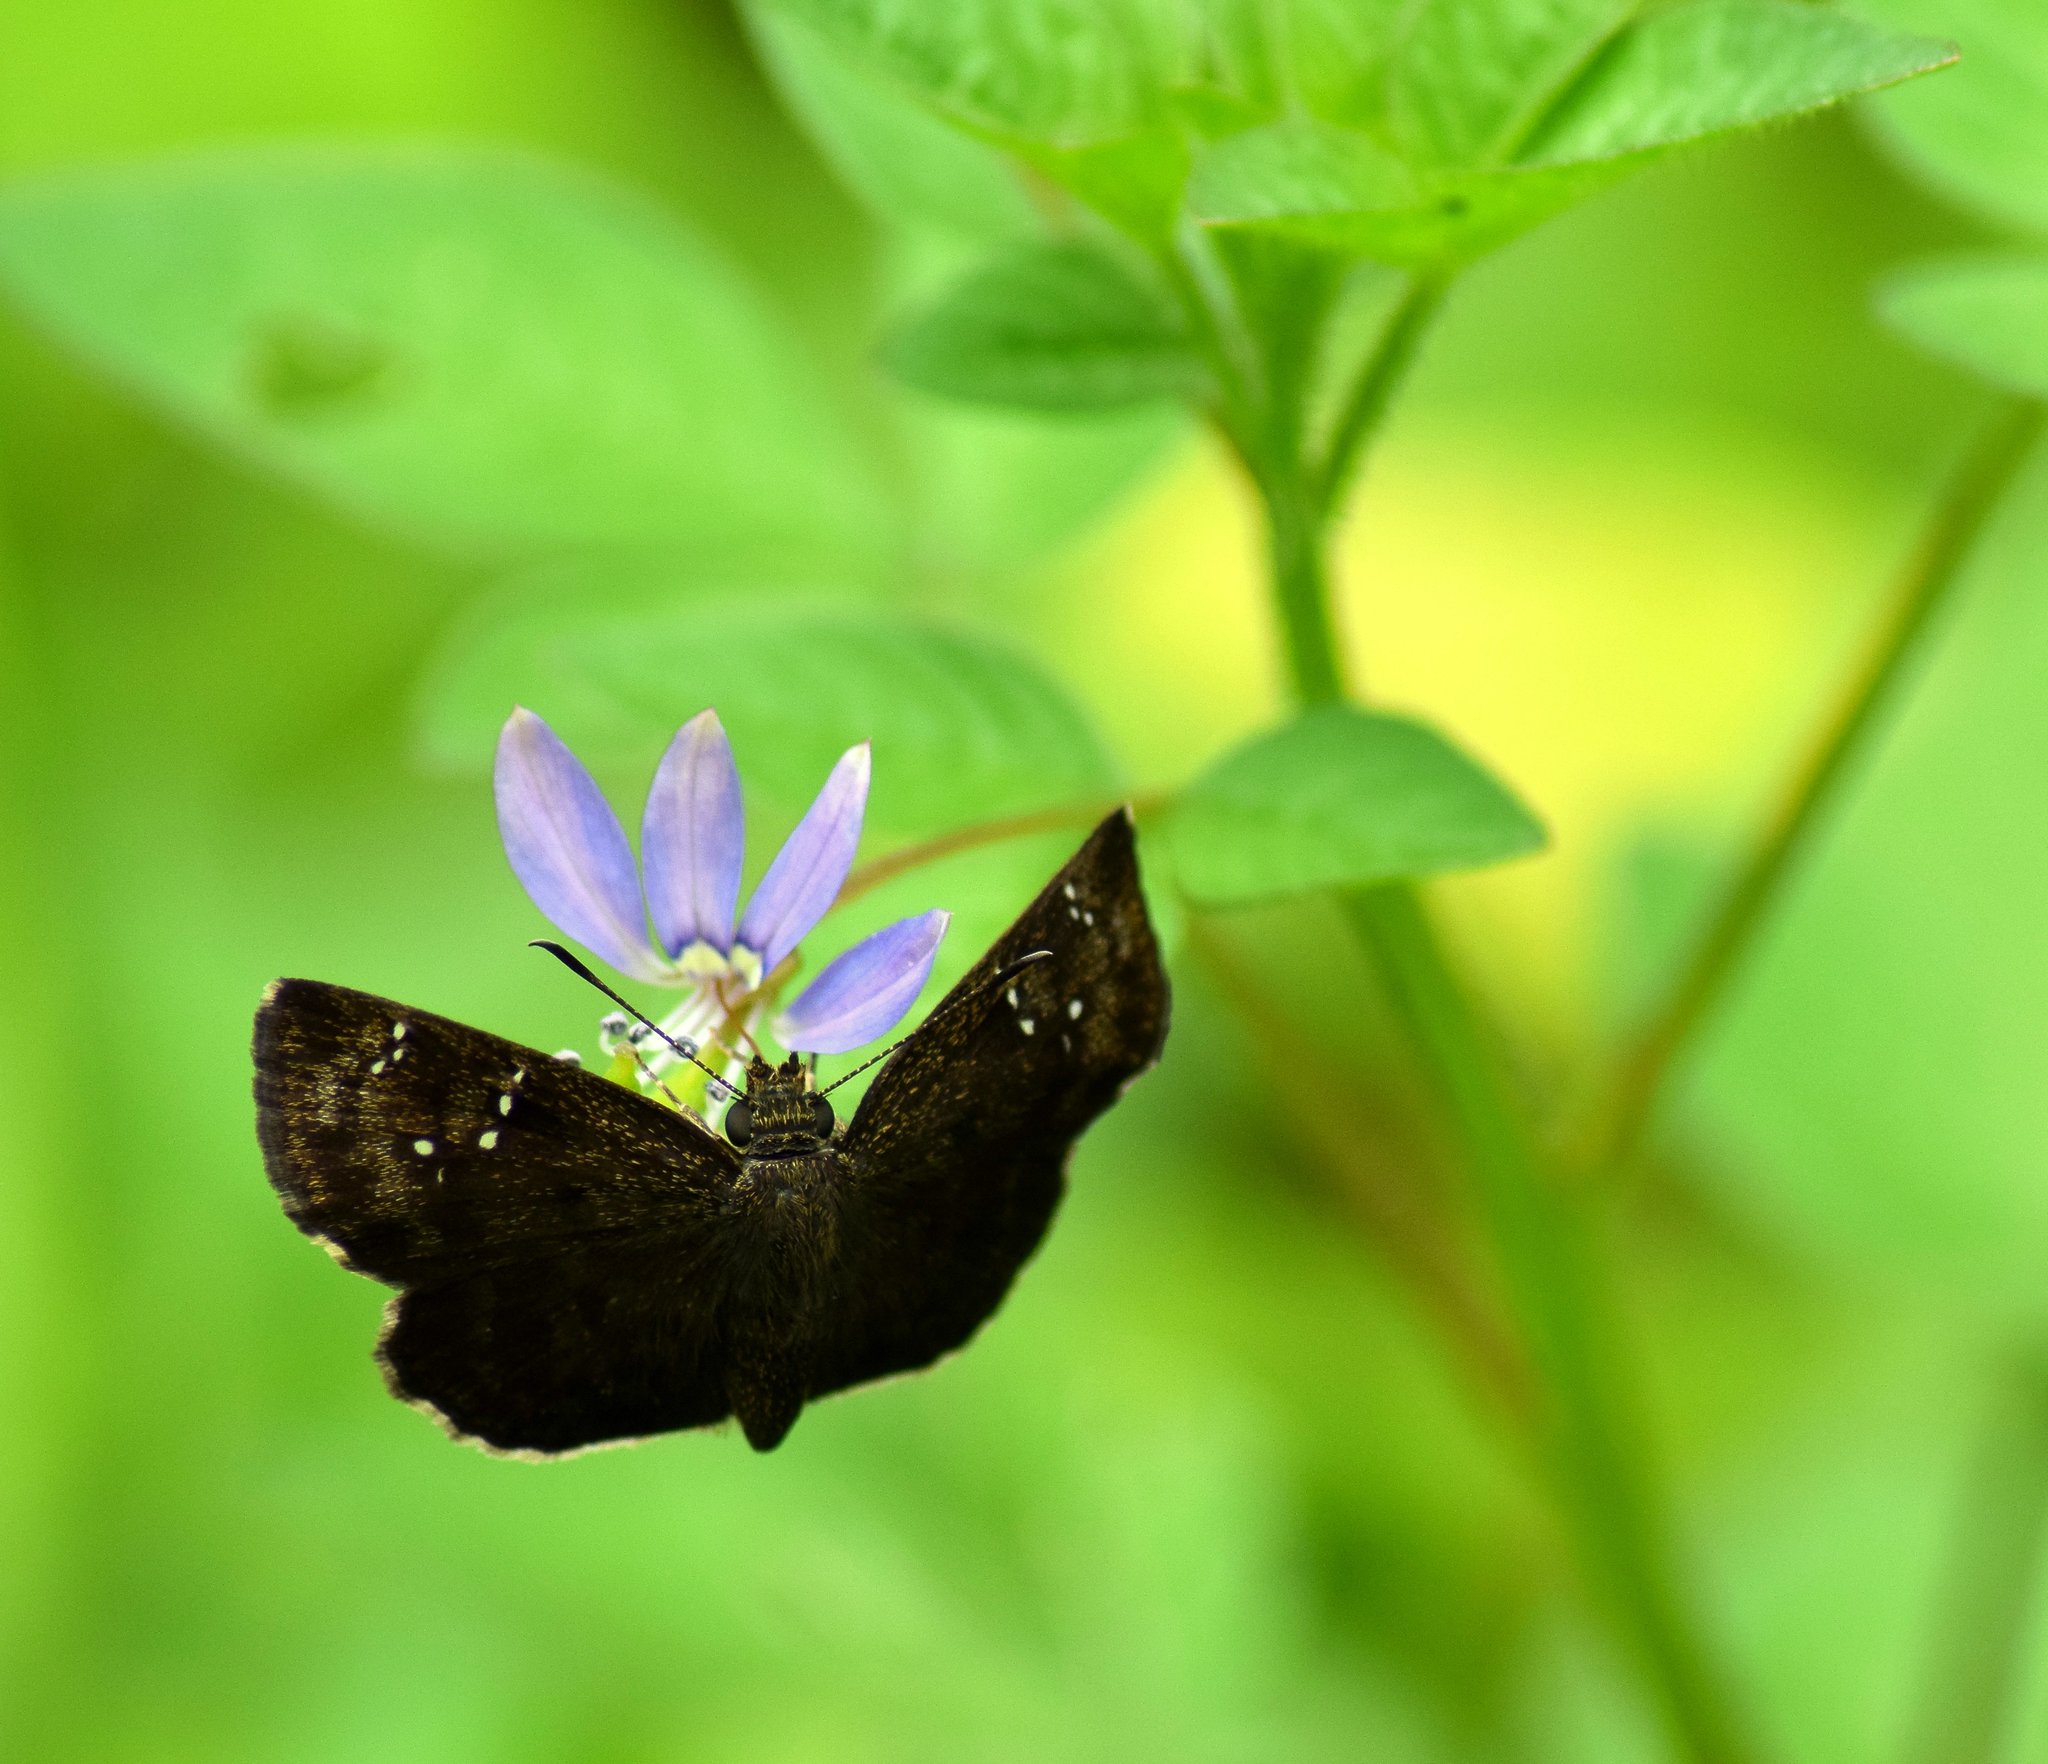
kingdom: Animalia
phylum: Arthropoda
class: Insecta
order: Lepidoptera
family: Hesperiidae
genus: Sarangesa
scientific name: Sarangesa dasahara
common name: Common small flat
